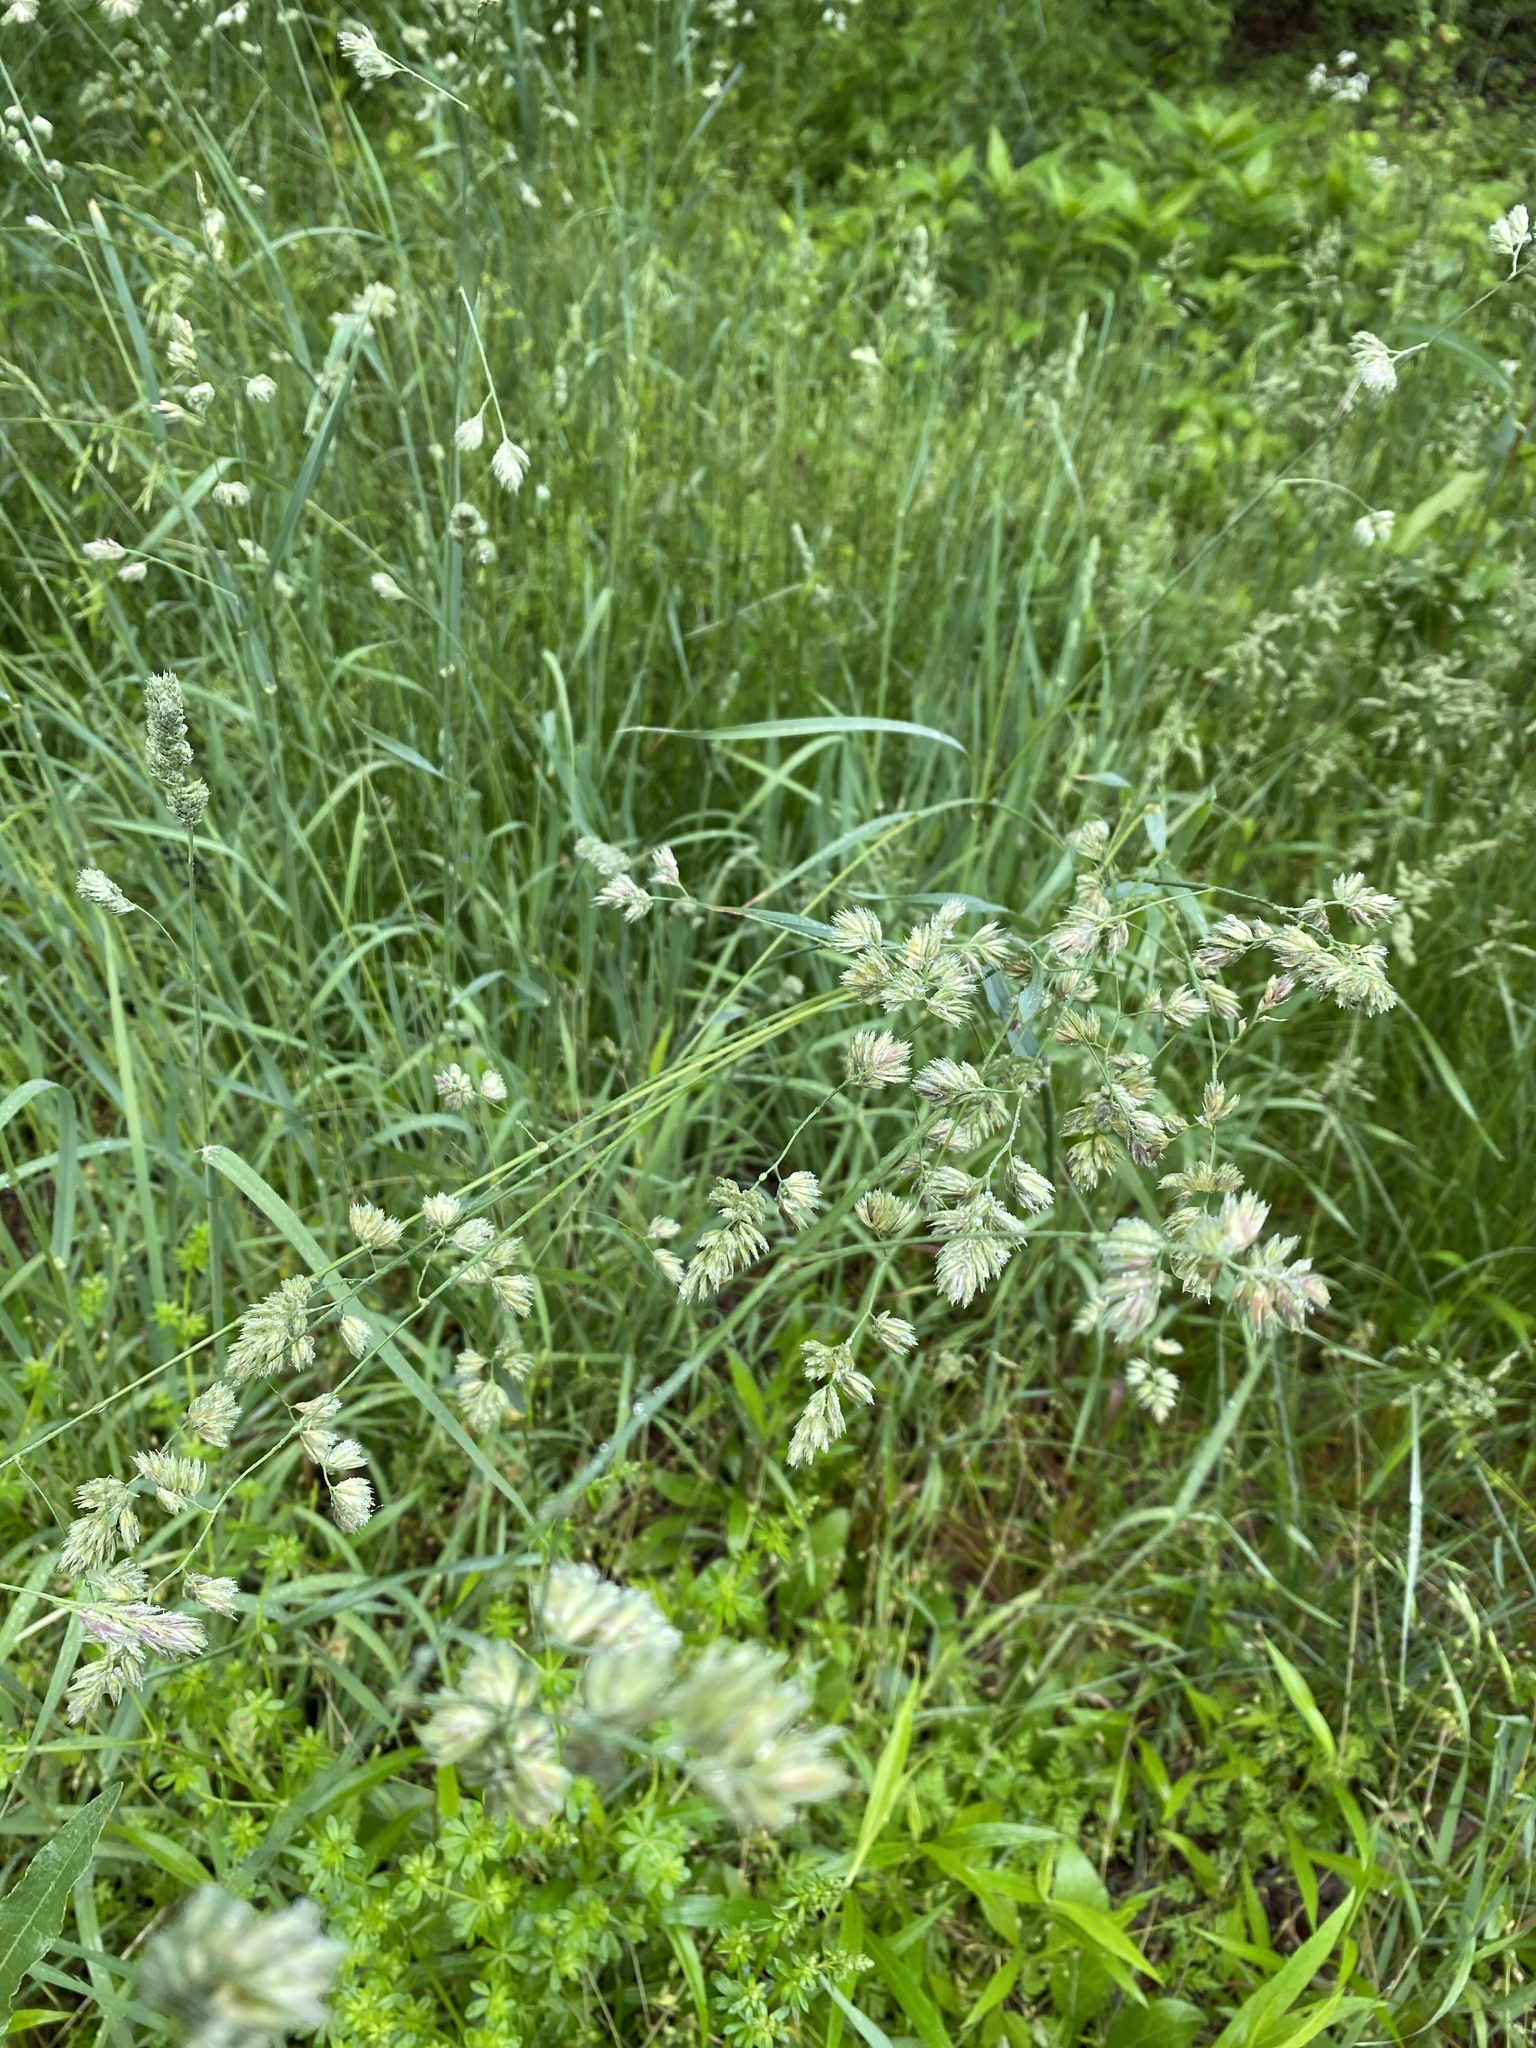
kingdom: Plantae
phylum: Tracheophyta
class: Liliopsida
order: Poales
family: Poaceae
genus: Dactylis
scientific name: Dactylis glomerata
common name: Orchardgrass
